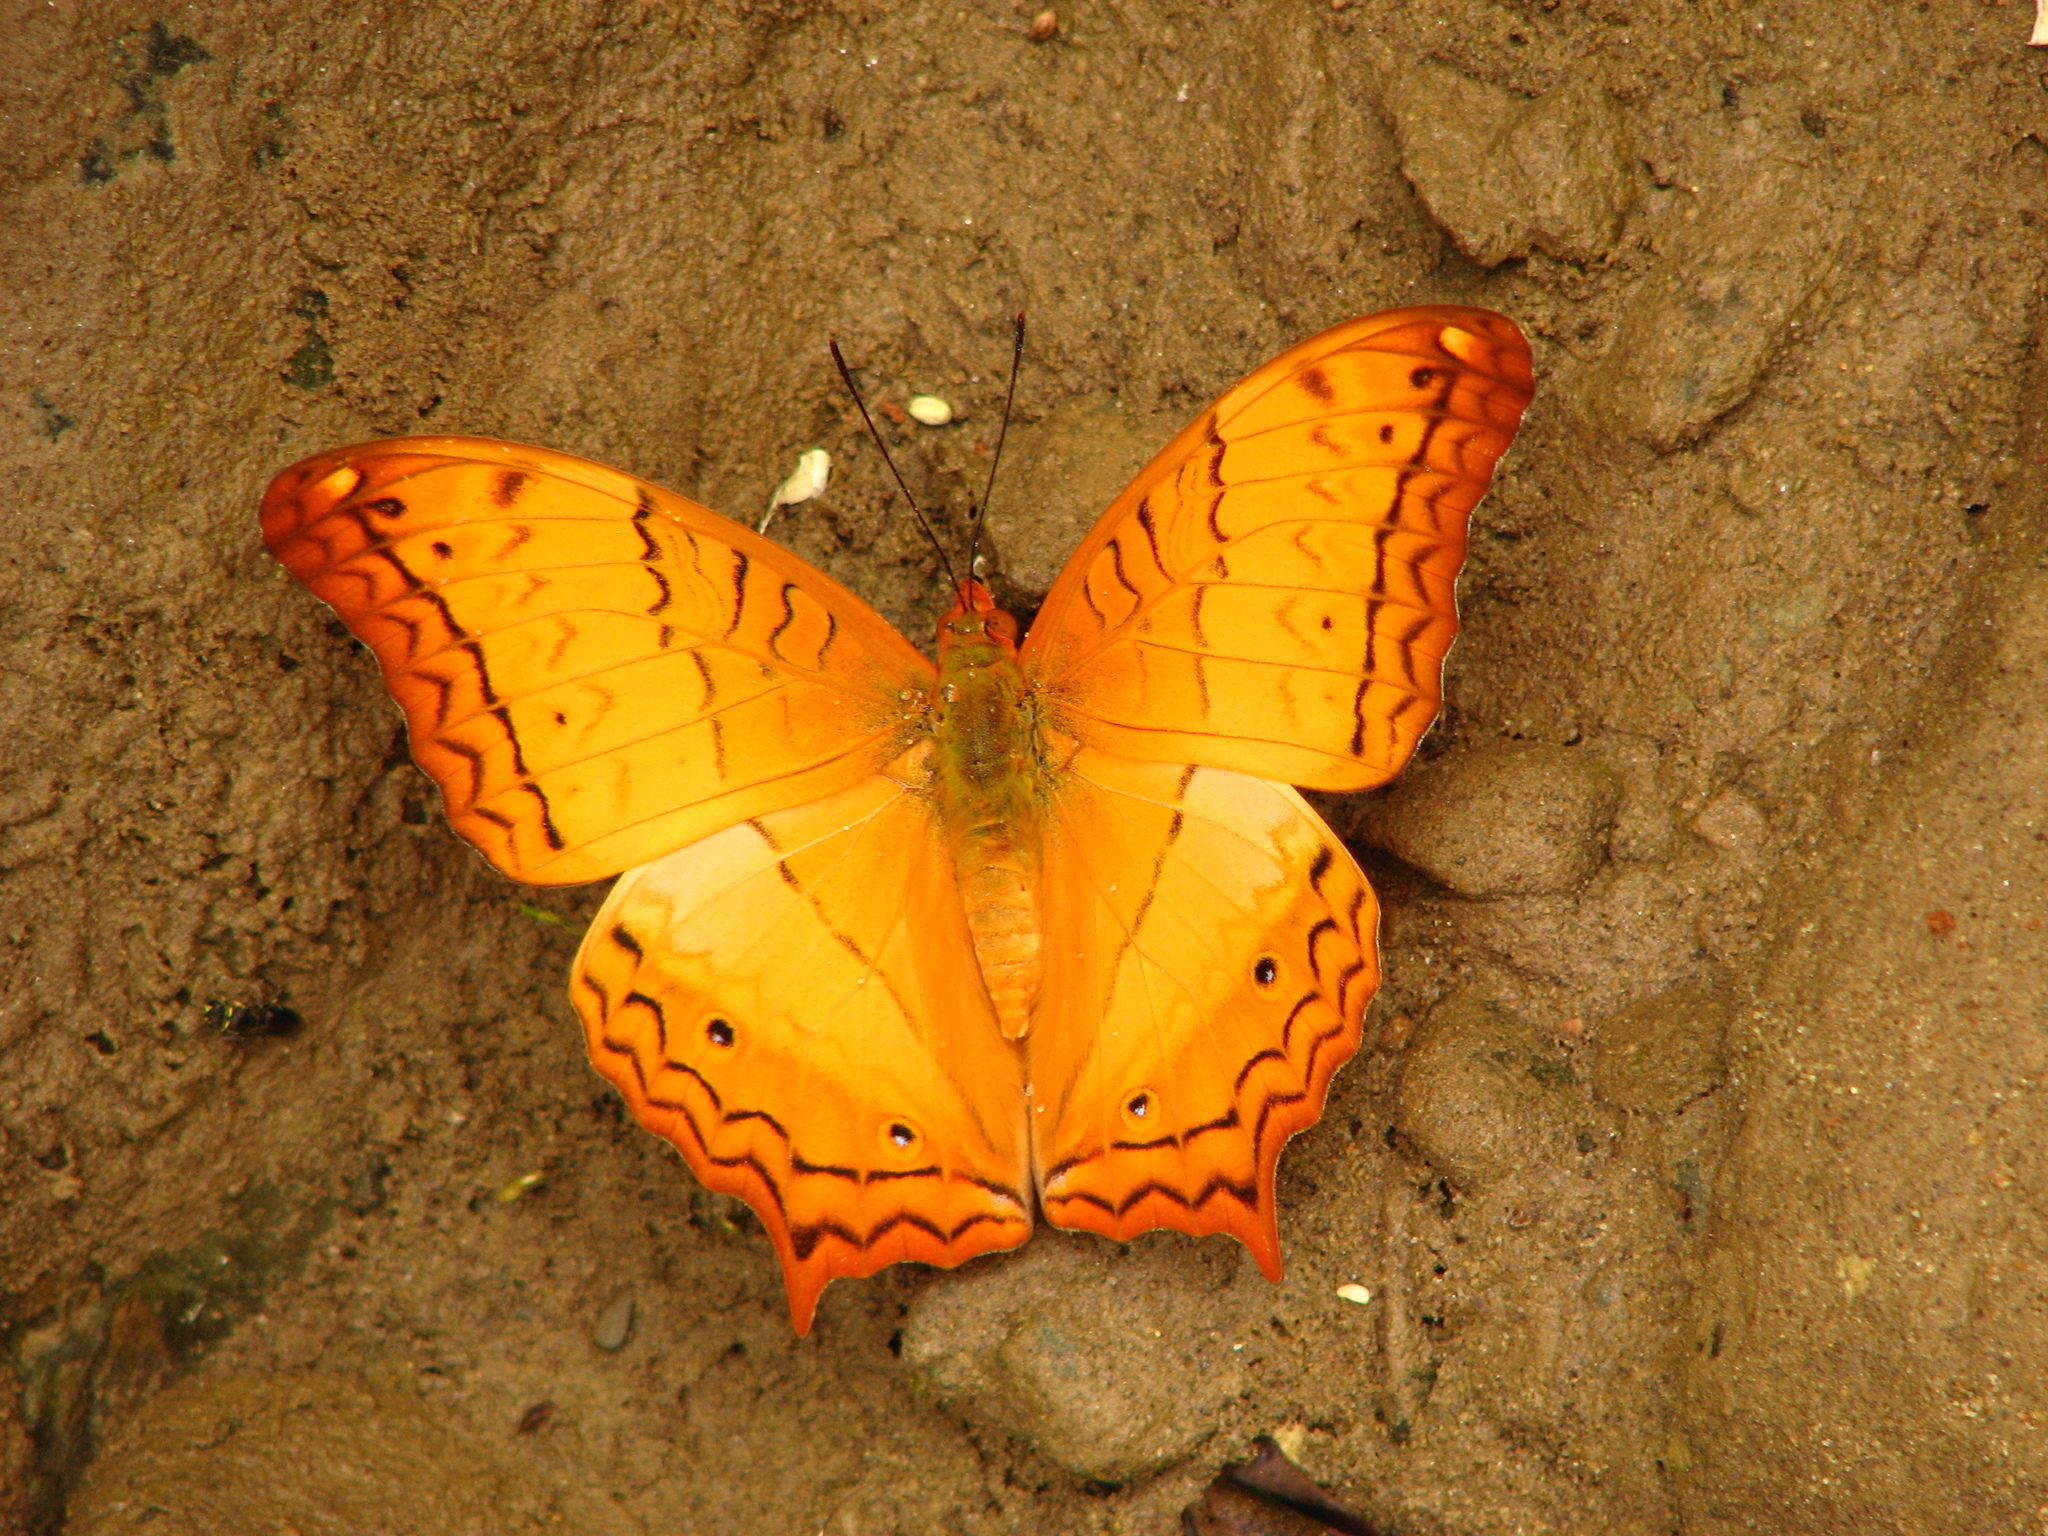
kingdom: Animalia
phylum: Arthropoda
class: Insecta
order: Lepidoptera
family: Nymphalidae
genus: Vindula
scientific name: Vindula erota
